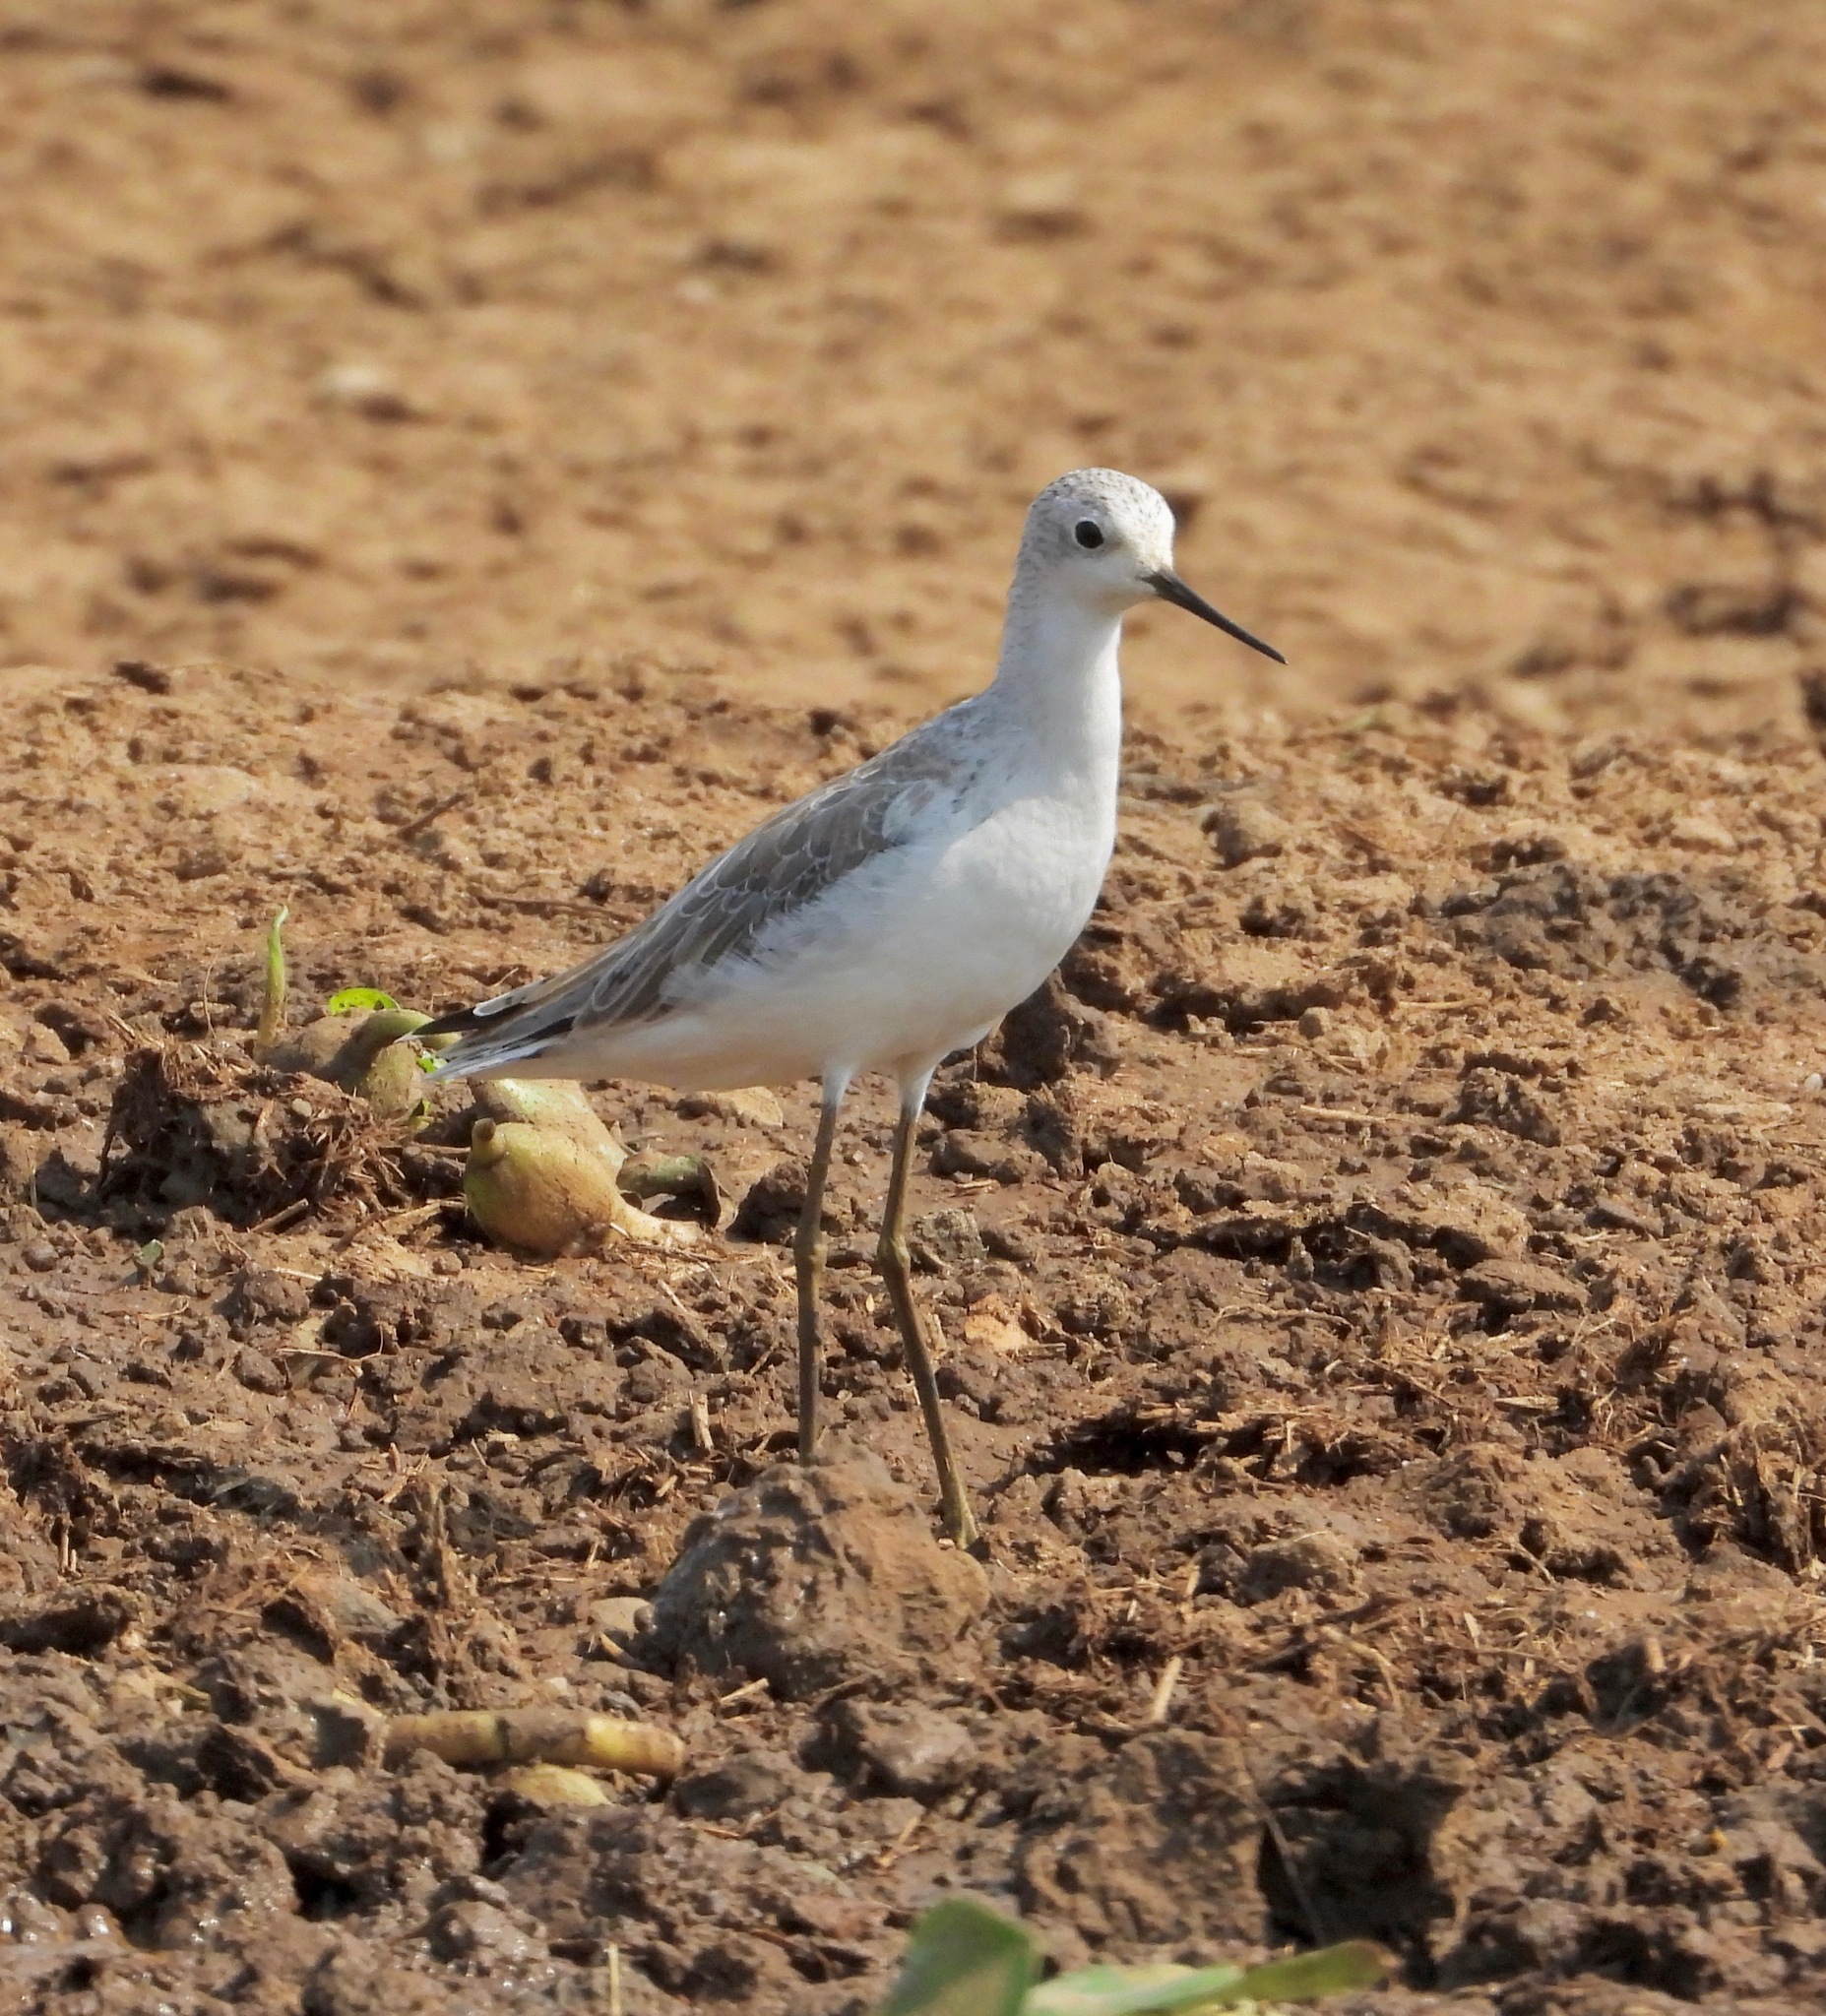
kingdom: Animalia
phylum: Chordata
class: Aves
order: Charadriiformes
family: Scolopacidae
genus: Tringa
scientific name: Tringa stagnatilis
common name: Marsh sandpiper
